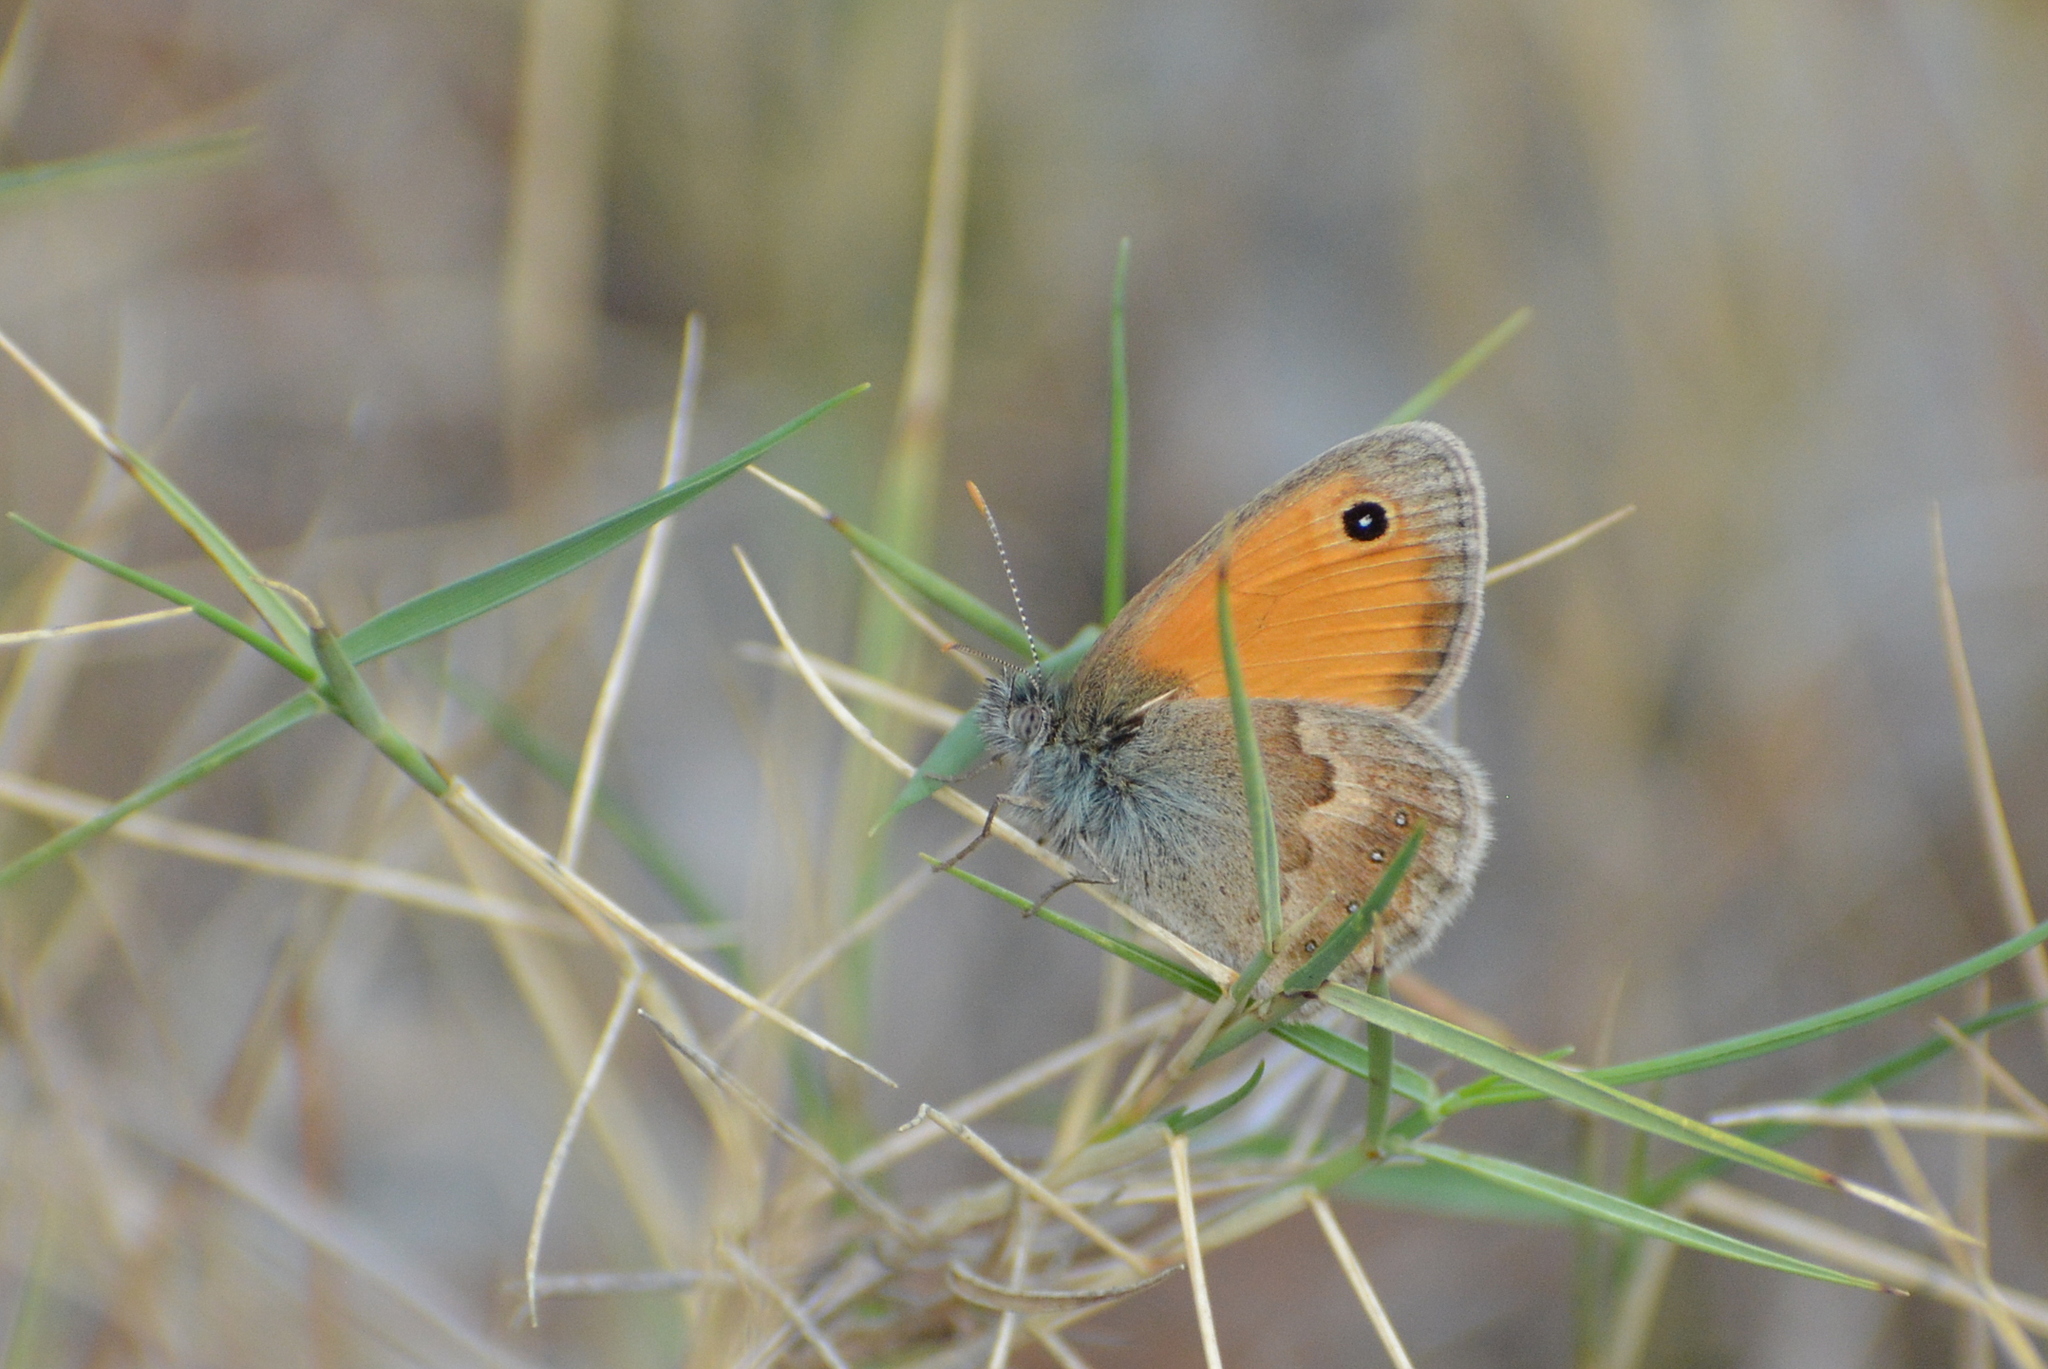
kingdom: Animalia
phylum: Arthropoda
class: Insecta
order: Lepidoptera
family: Nymphalidae
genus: Coenonympha
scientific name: Coenonympha pamphilus
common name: Small heath
